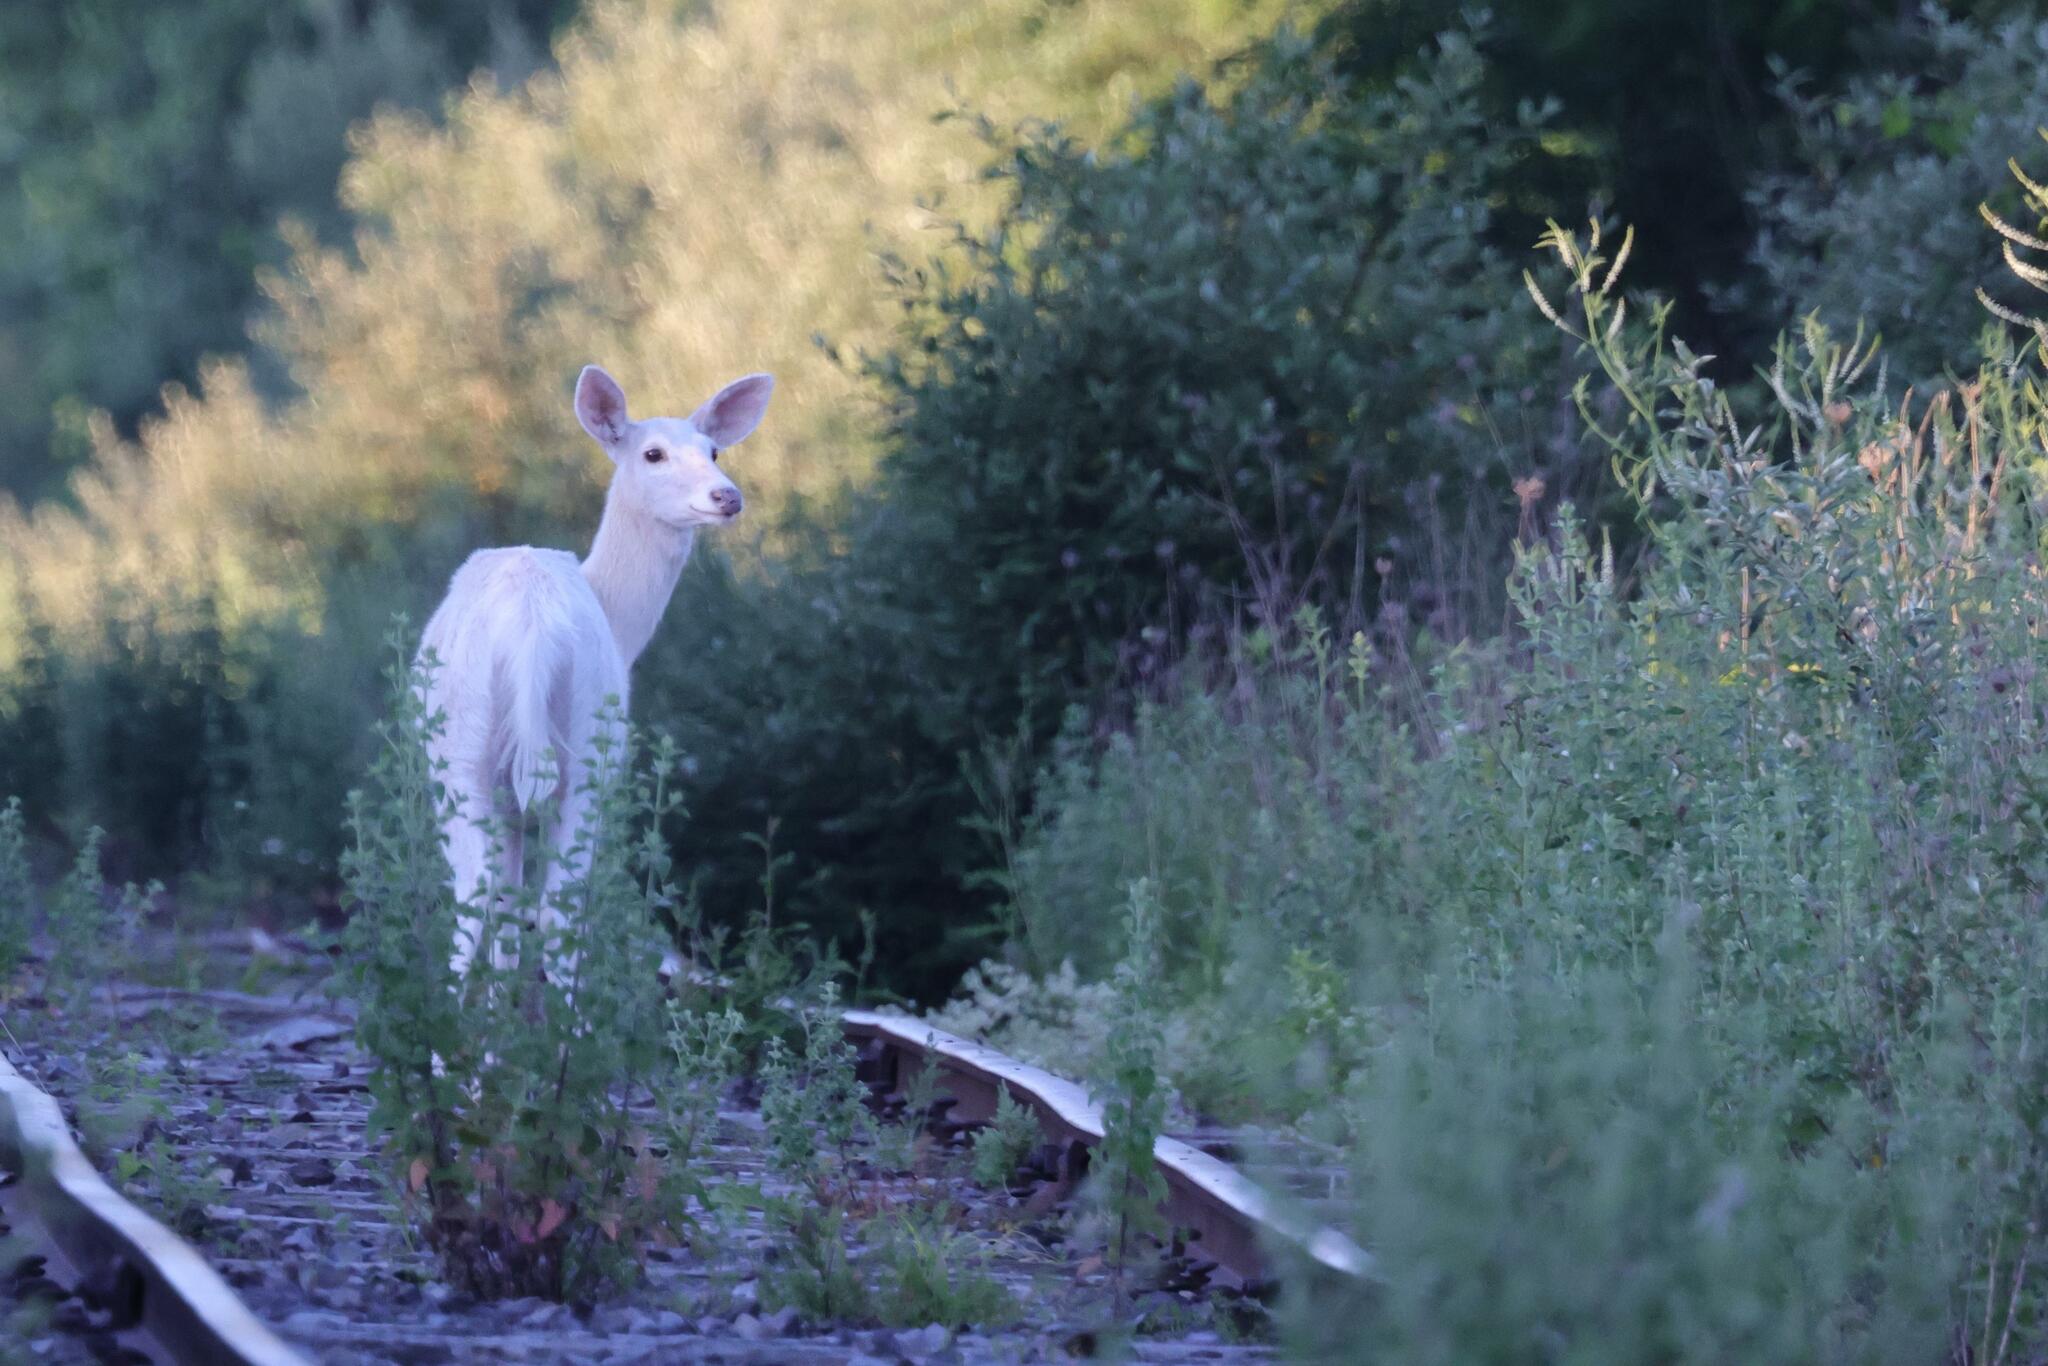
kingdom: Animalia
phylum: Chordata
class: Mammalia
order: Artiodactyla
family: Cervidae
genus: Odocoileus
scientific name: Odocoileus virginianus
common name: White-tailed deer
